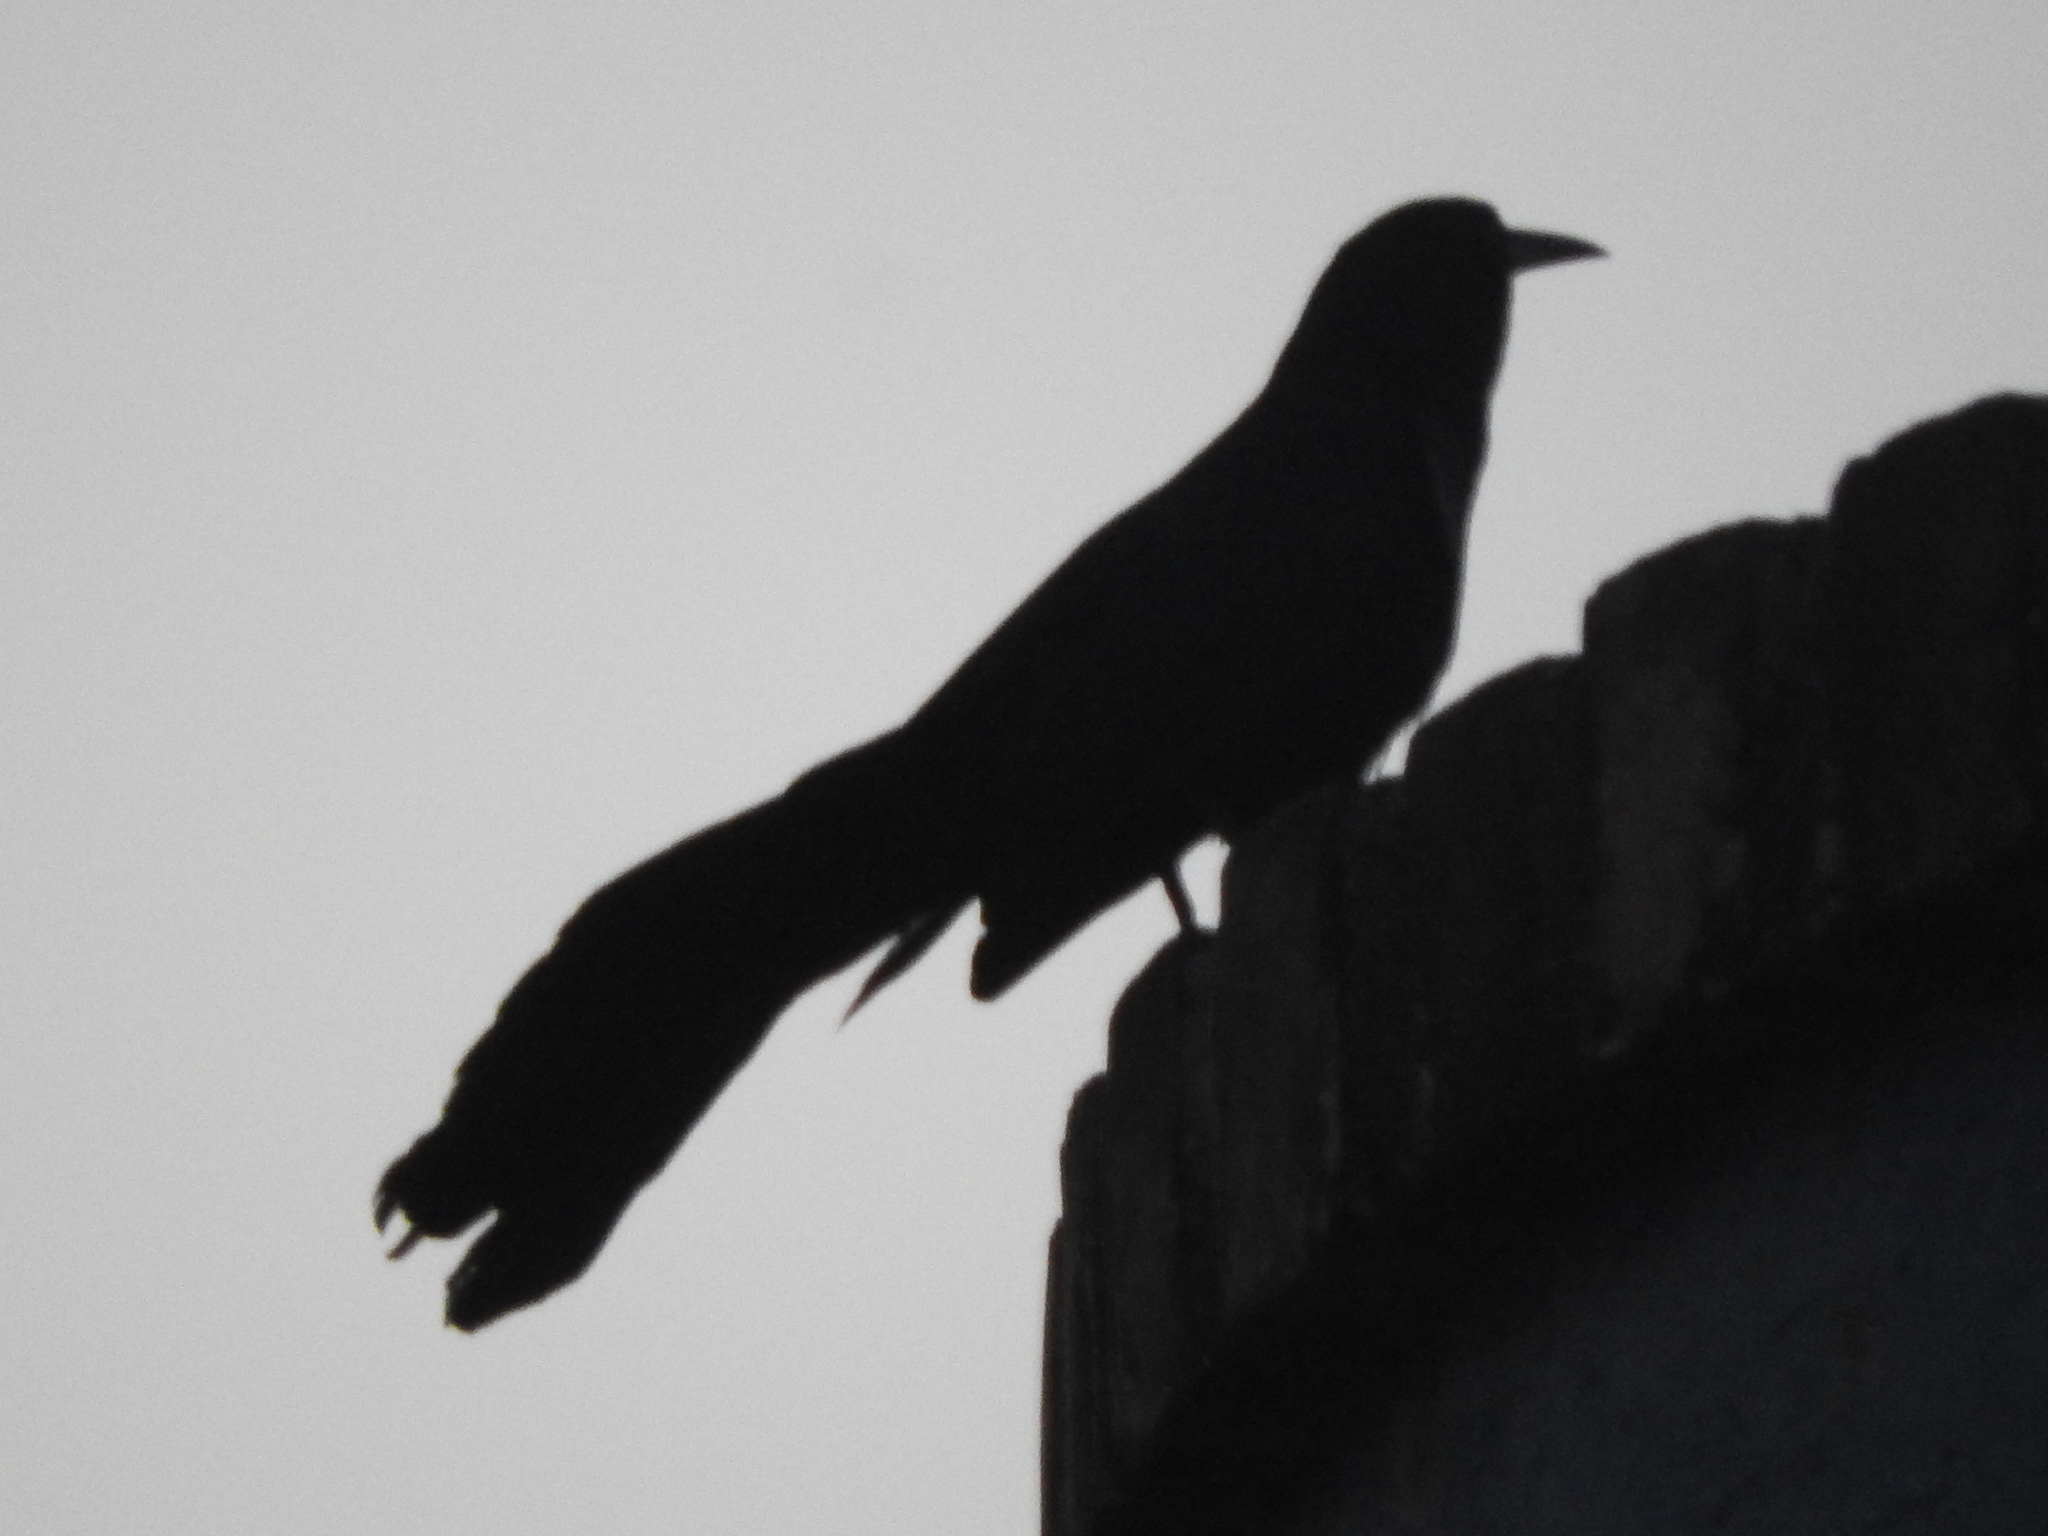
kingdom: Animalia
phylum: Chordata
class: Aves
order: Passeriformes
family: Icteridae
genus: Quiscalus
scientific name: Quiscalus mexicanus
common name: Great-tailed grackle
